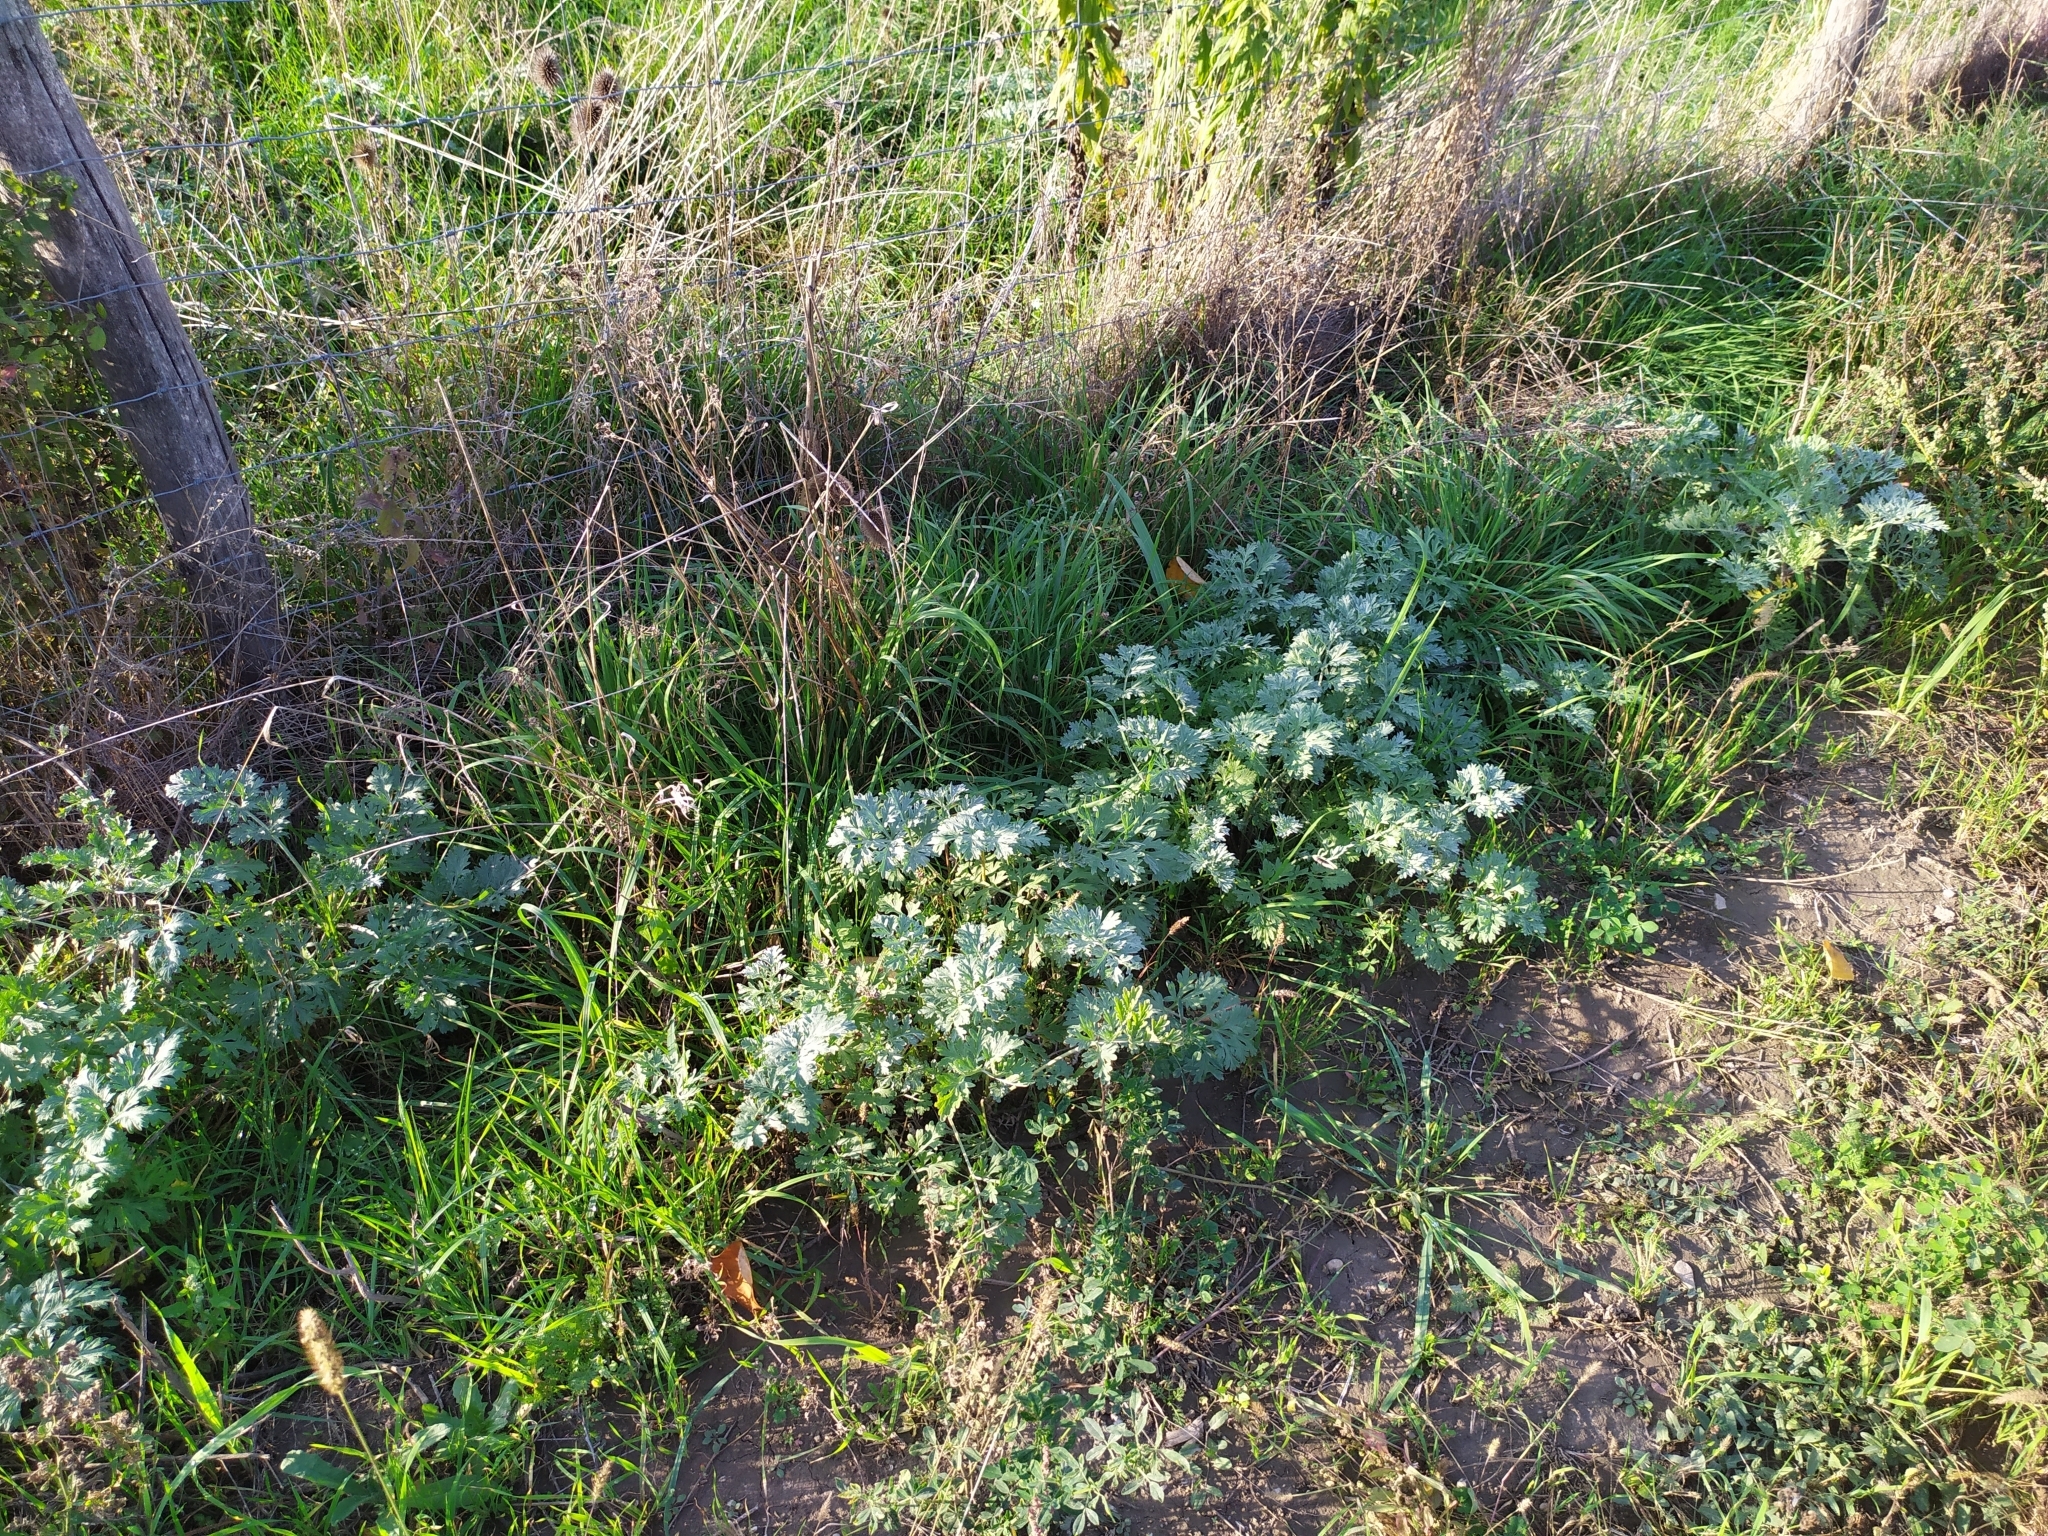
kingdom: Plantae
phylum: Tracheophyta
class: Magnoliopsida
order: Asterales
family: Asteraceae
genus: Artemisia
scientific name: Artemisia absinthium
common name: Wormwood
